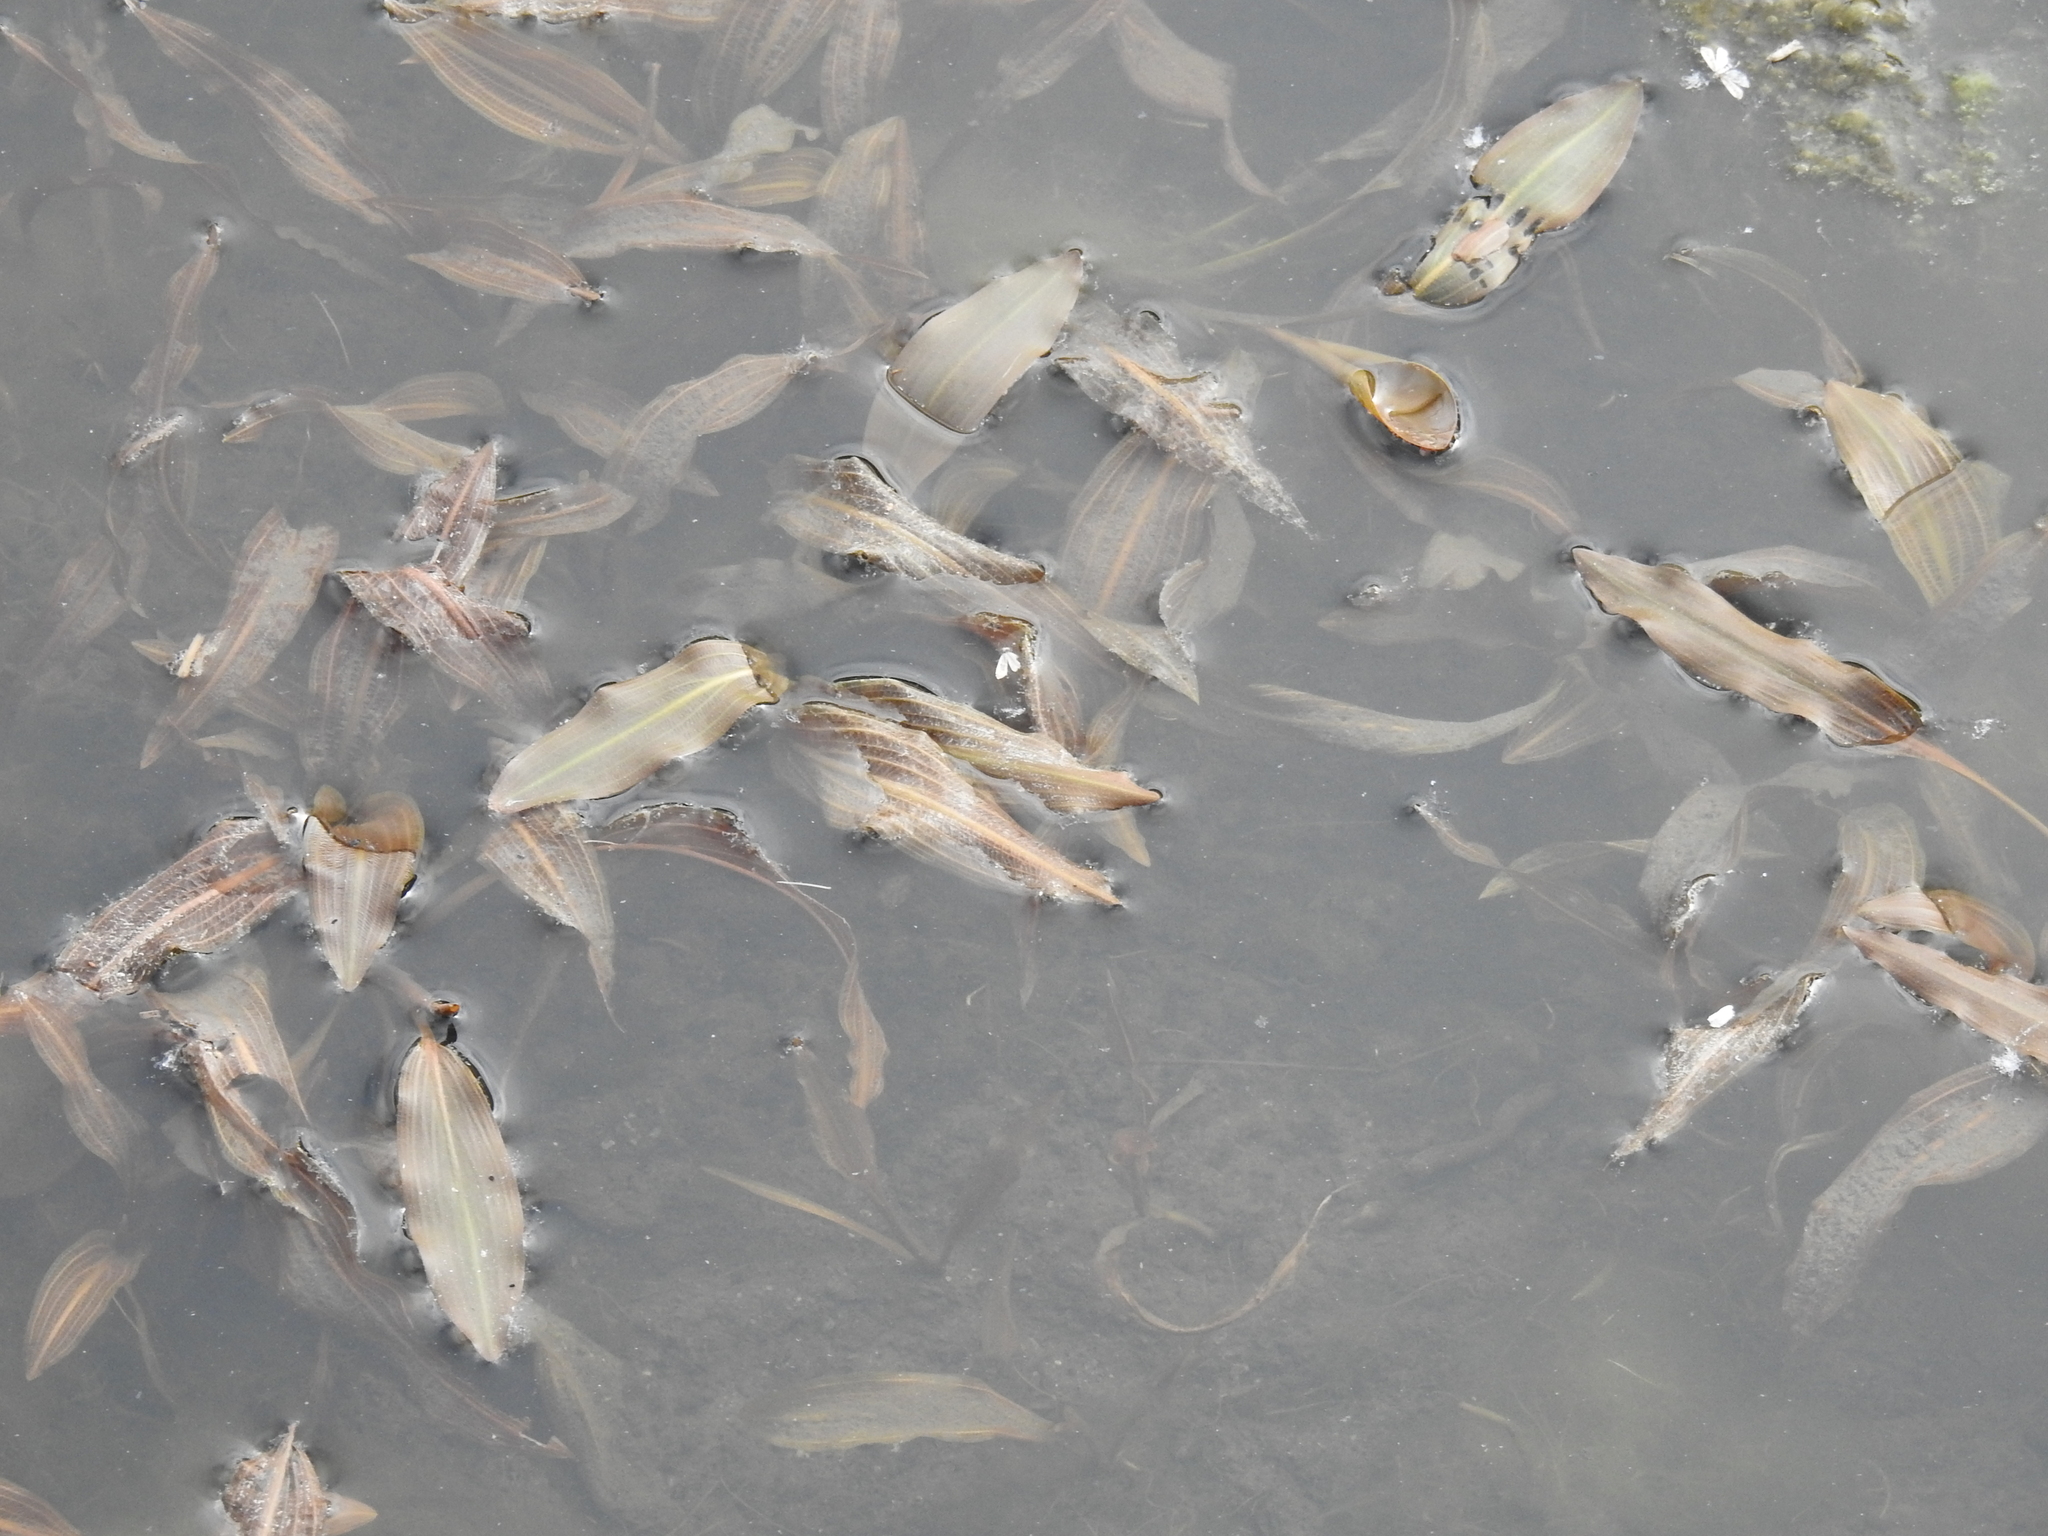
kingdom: Plantae
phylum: Tracheophyta
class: Liliopsida
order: Alismatales
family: Potamogetonaceae
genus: Potamogeton
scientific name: Potamogeton nodosus
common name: Loddon pondweed
